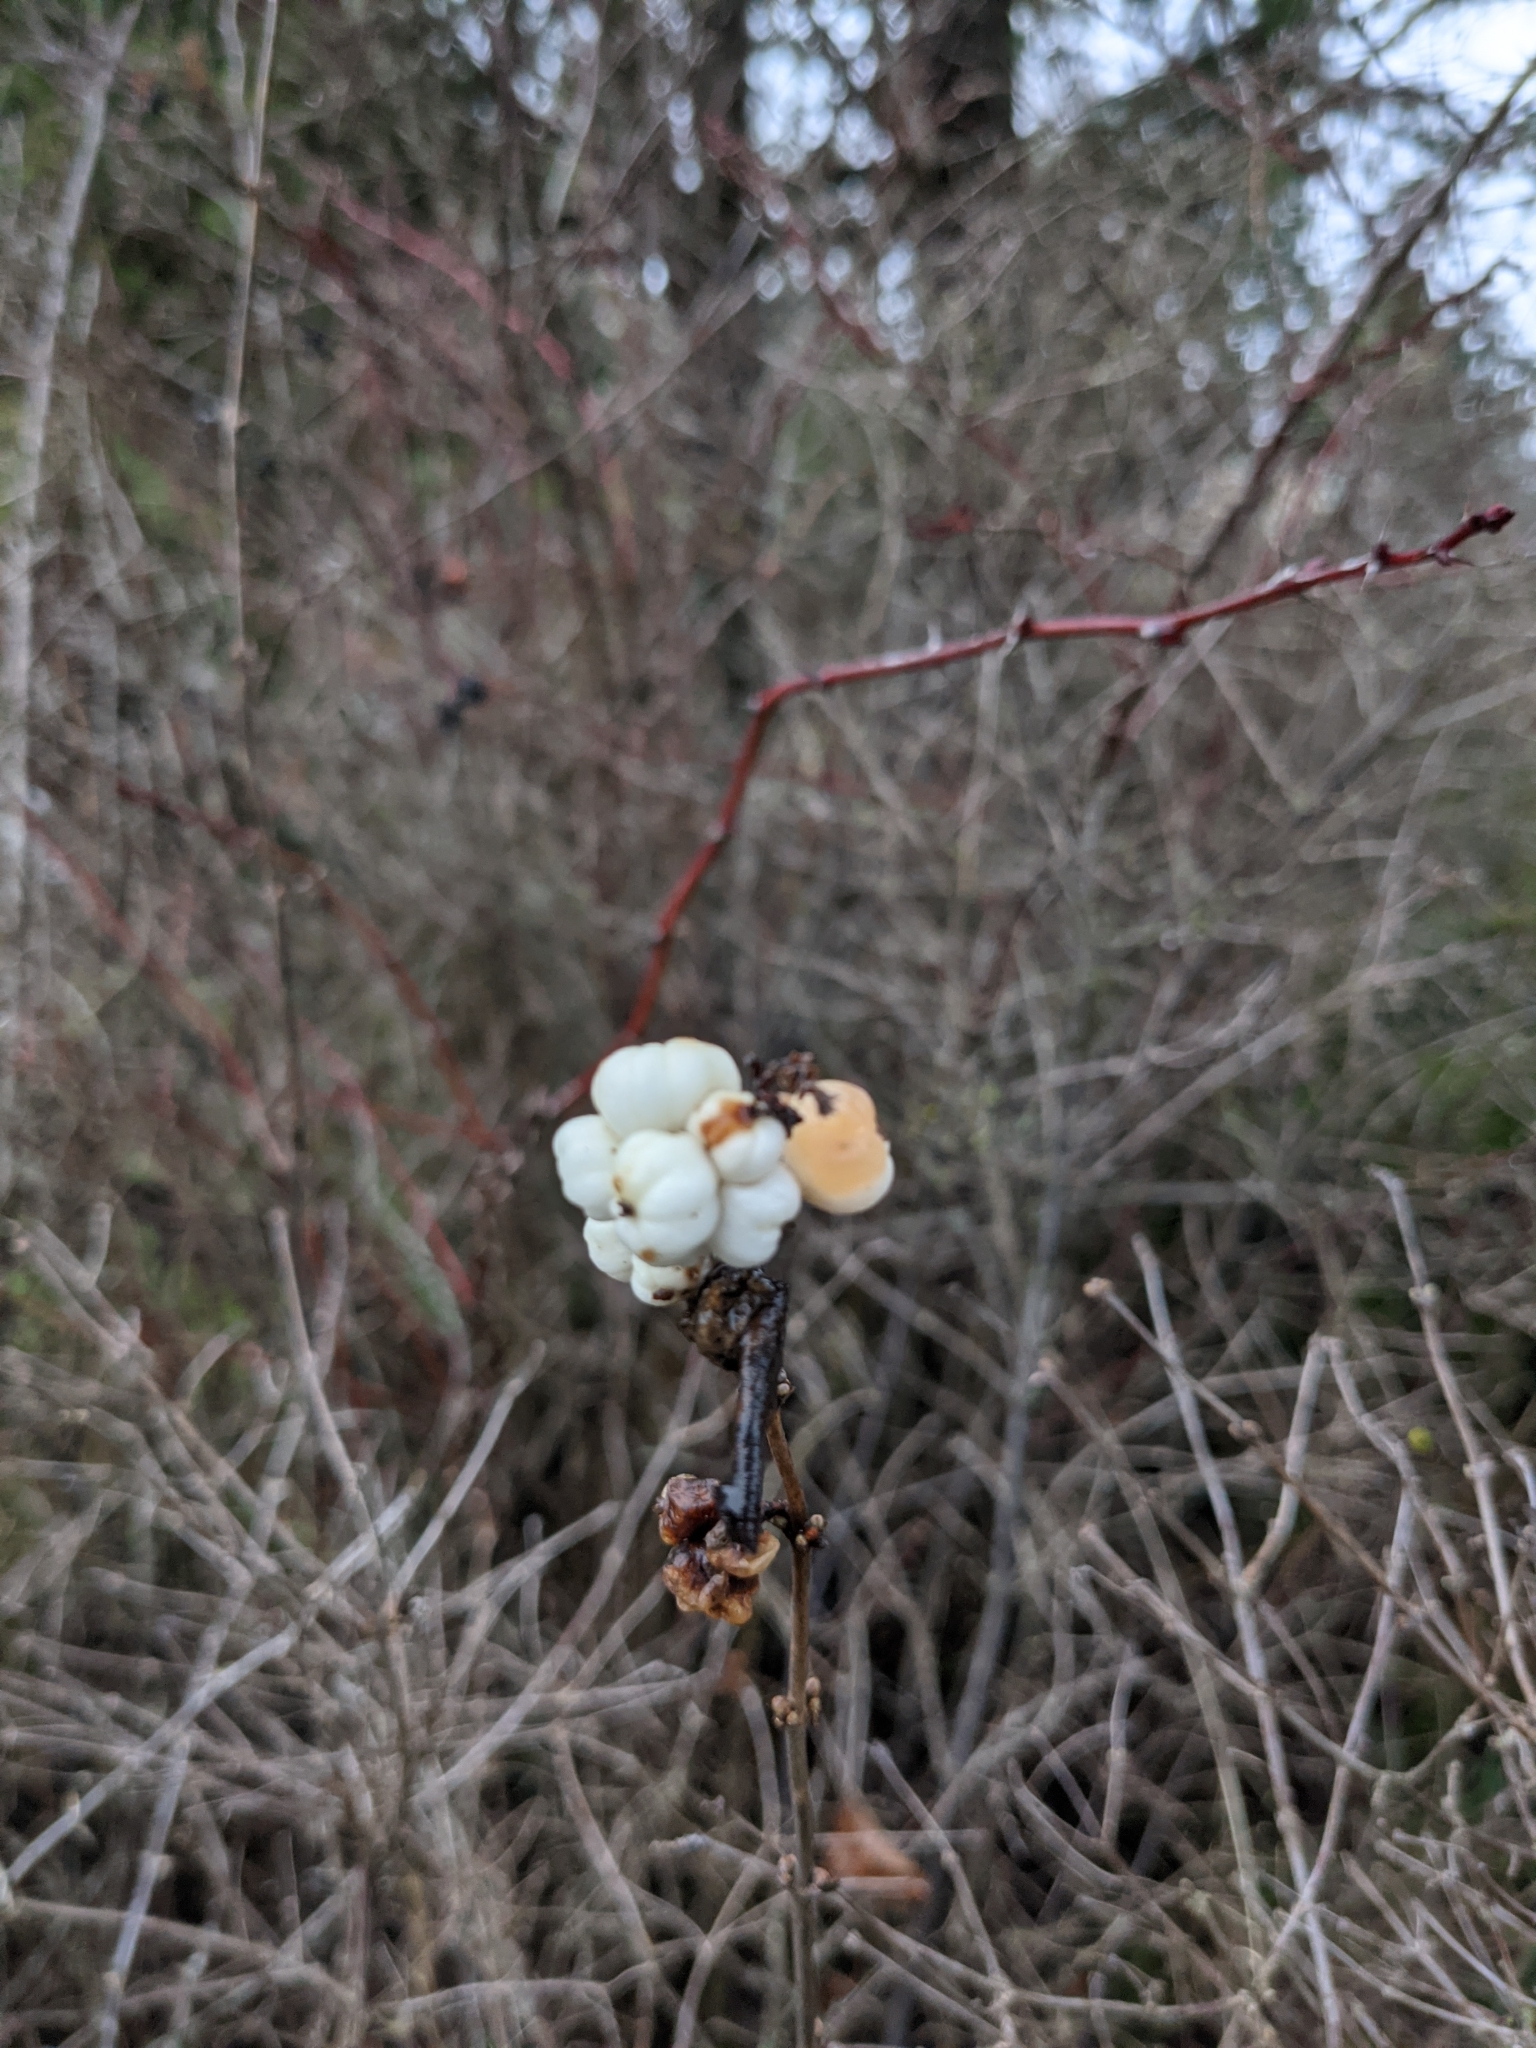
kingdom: Plantae
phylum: Tracheophyta
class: Magnoliopsida
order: Dipsacales
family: Caprifoliaceae
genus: Symphoricarpos
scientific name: Symphoricarpos albus
